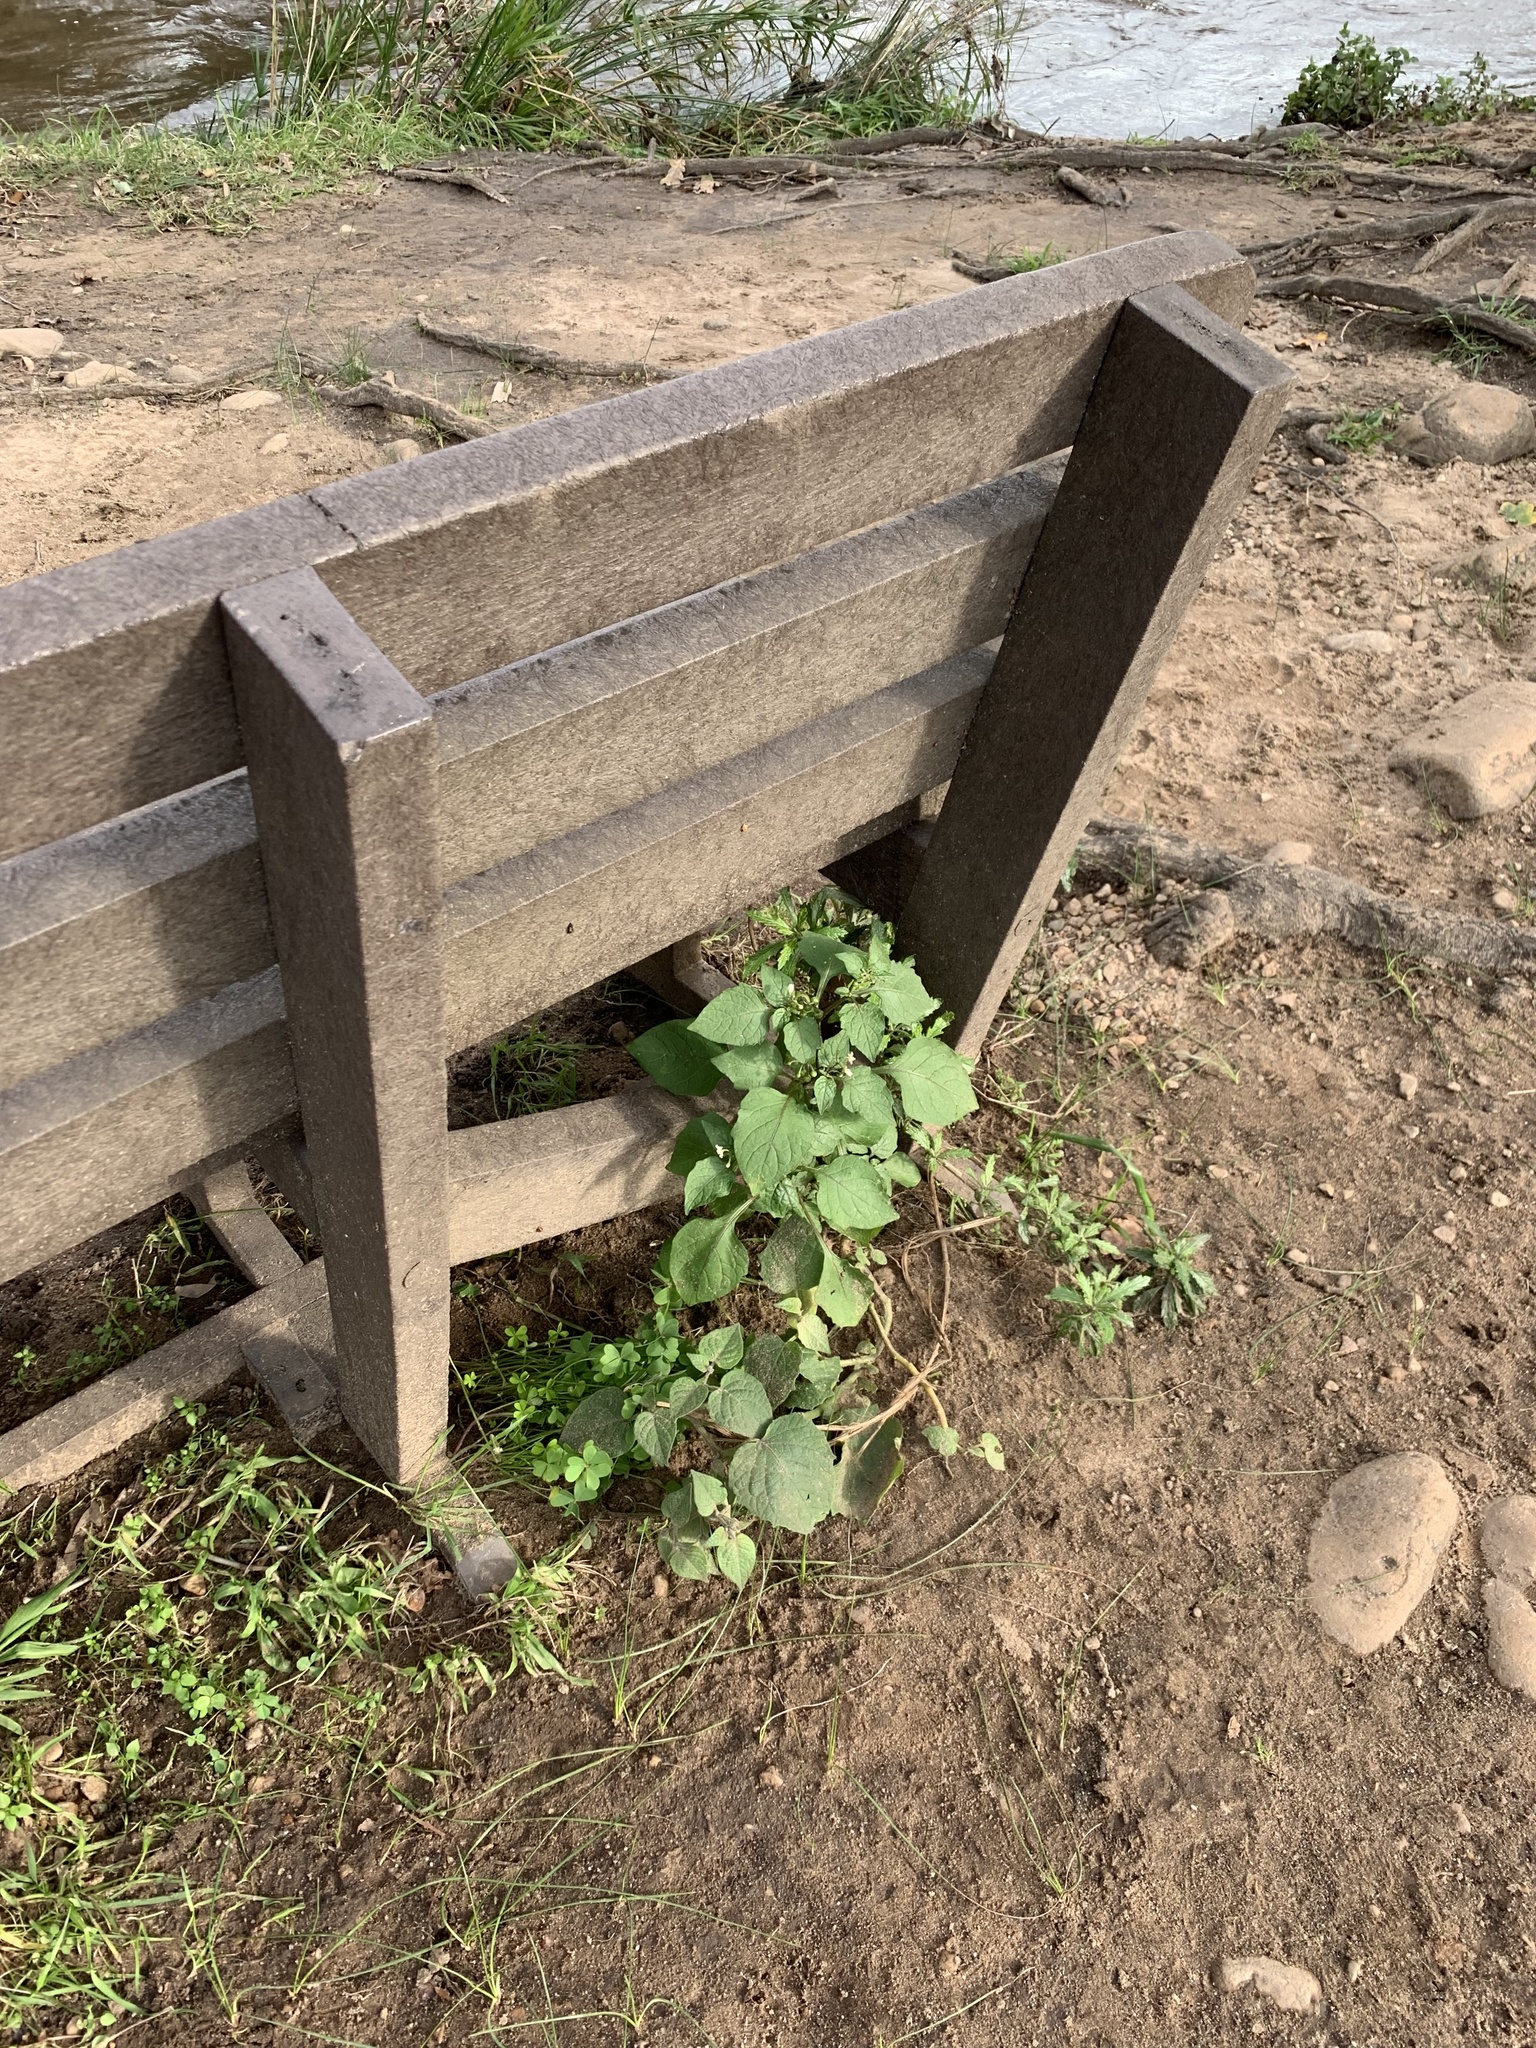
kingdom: Plantae
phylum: Tracheophyta
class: Magnoliopsida
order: Solanales
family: Solanaceae
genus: Solanum
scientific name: Solanum nigrum
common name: Black nightshade
